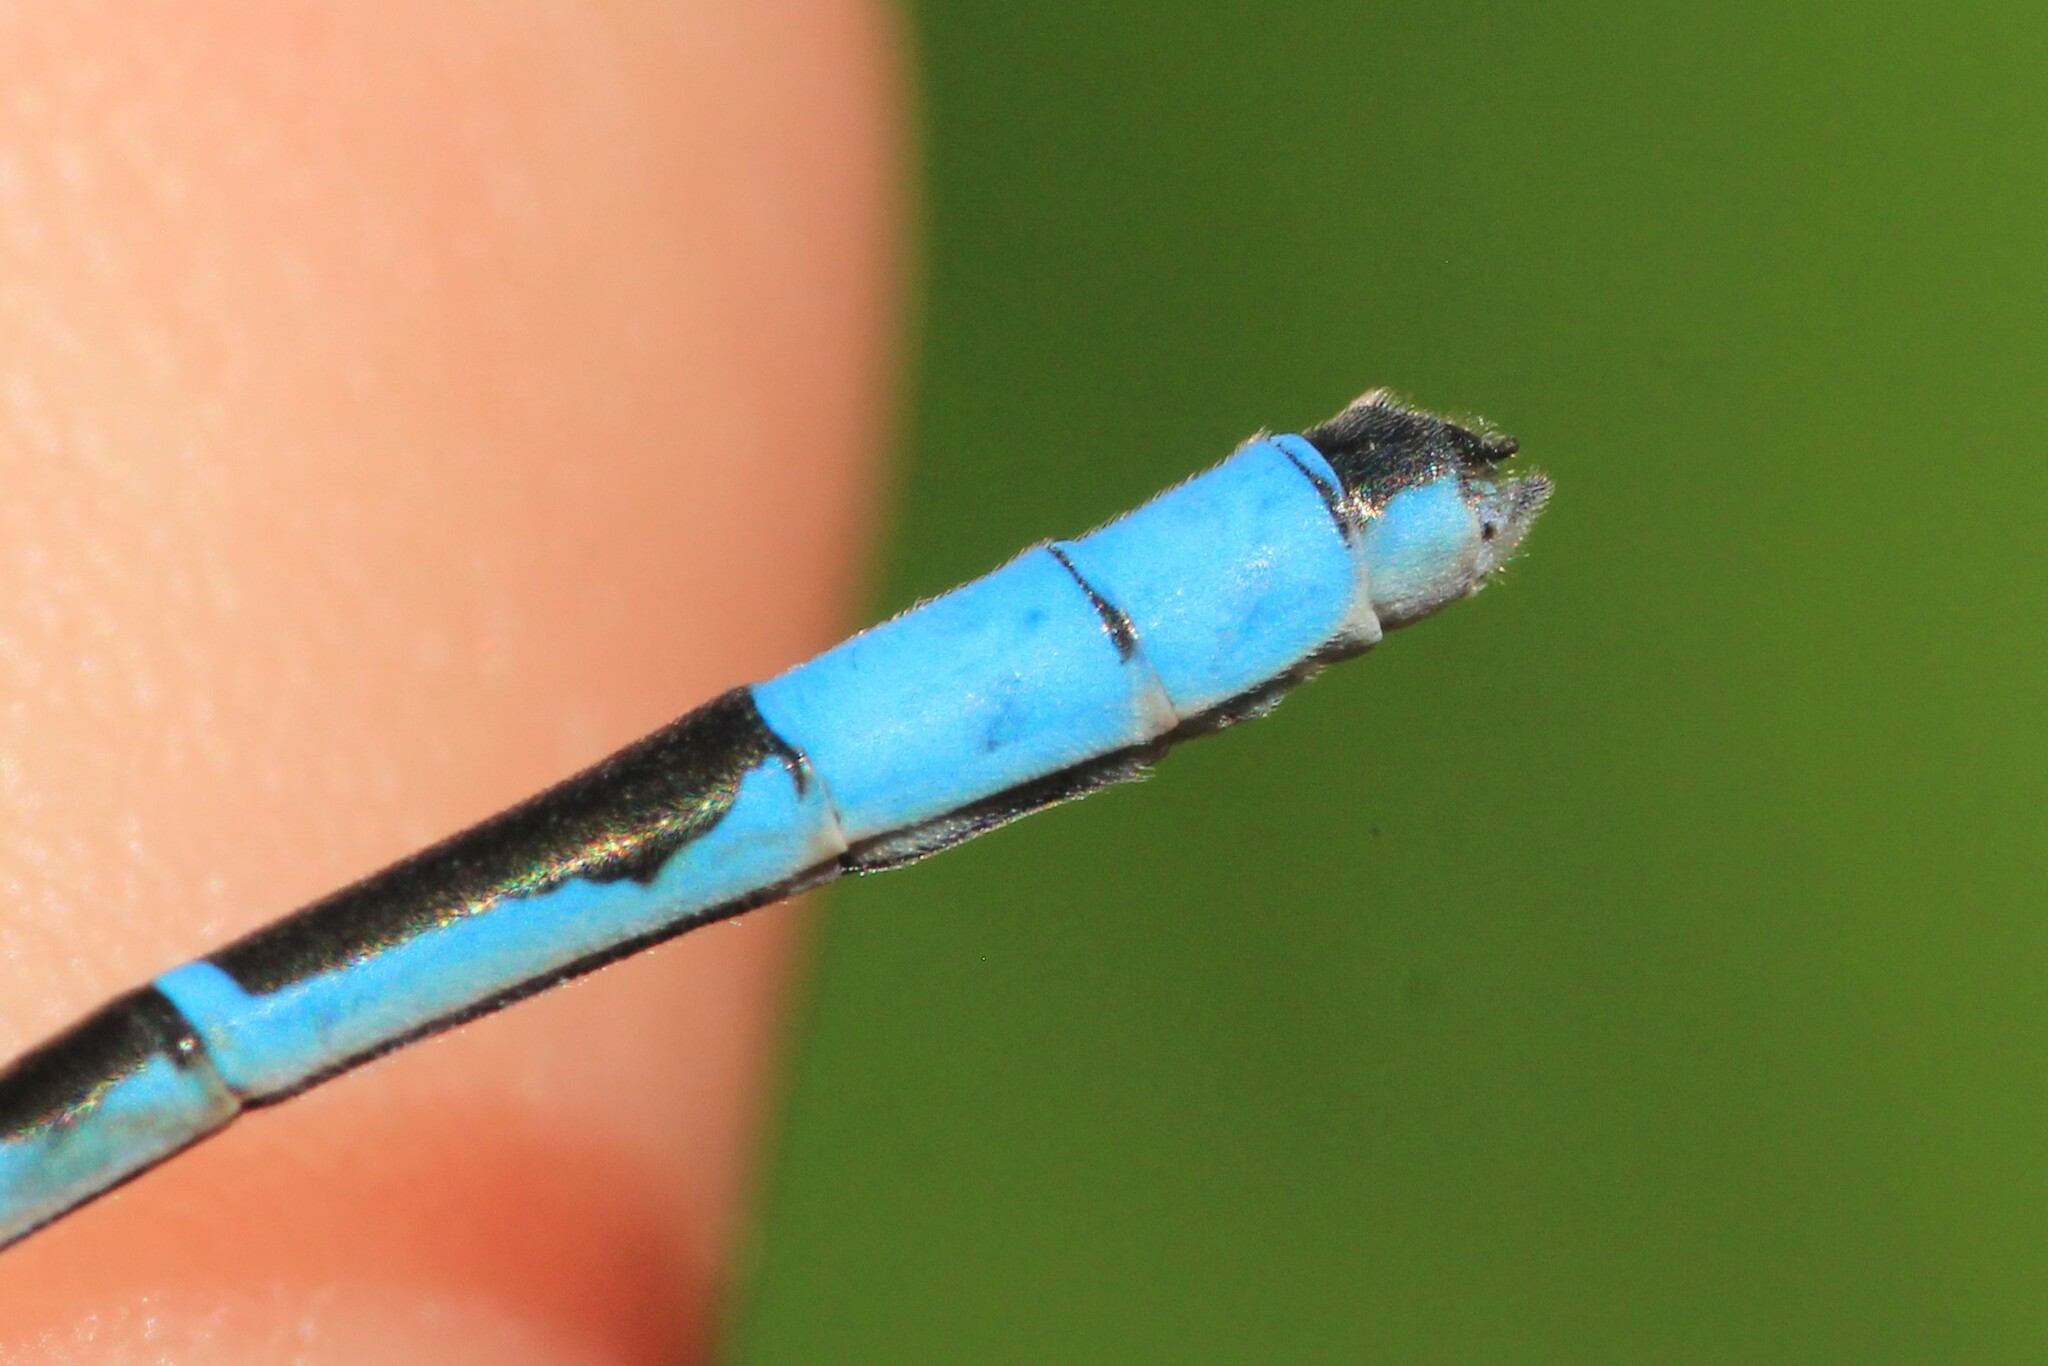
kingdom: Animalia
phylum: Arthropoda
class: Insecta
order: Odonata
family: Coenagrionidae
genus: Enallagma
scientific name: Enallagma hageni
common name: Hagen's bluet
